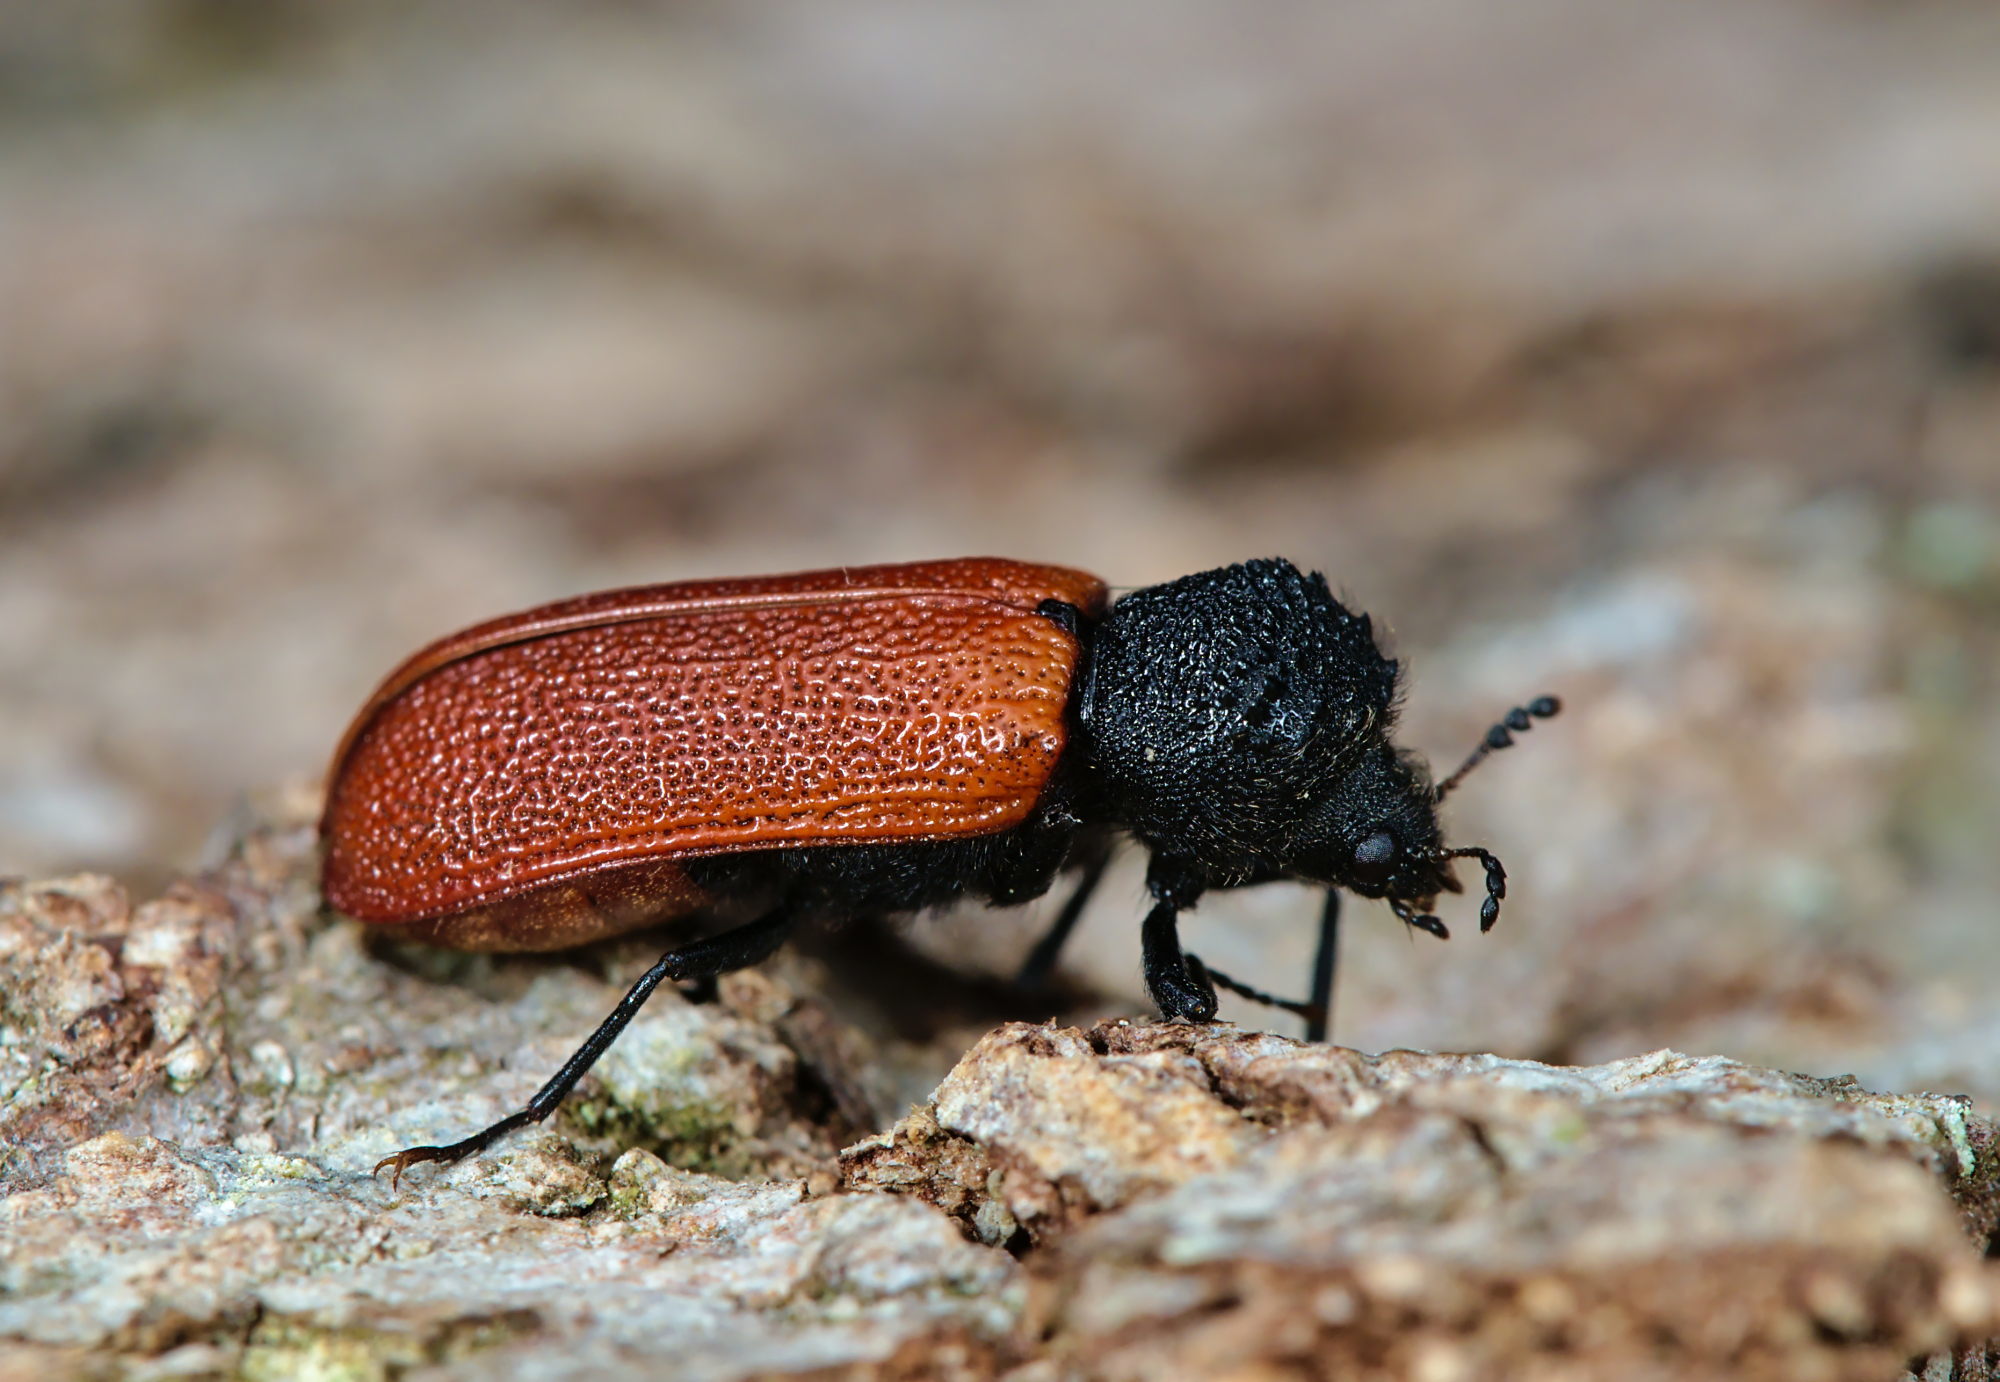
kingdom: Animalia
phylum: Arthropoda
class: Insecta
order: Coleoptera
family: Bostrichidae
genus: Bostrichus
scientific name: Bostrichus capucinus
